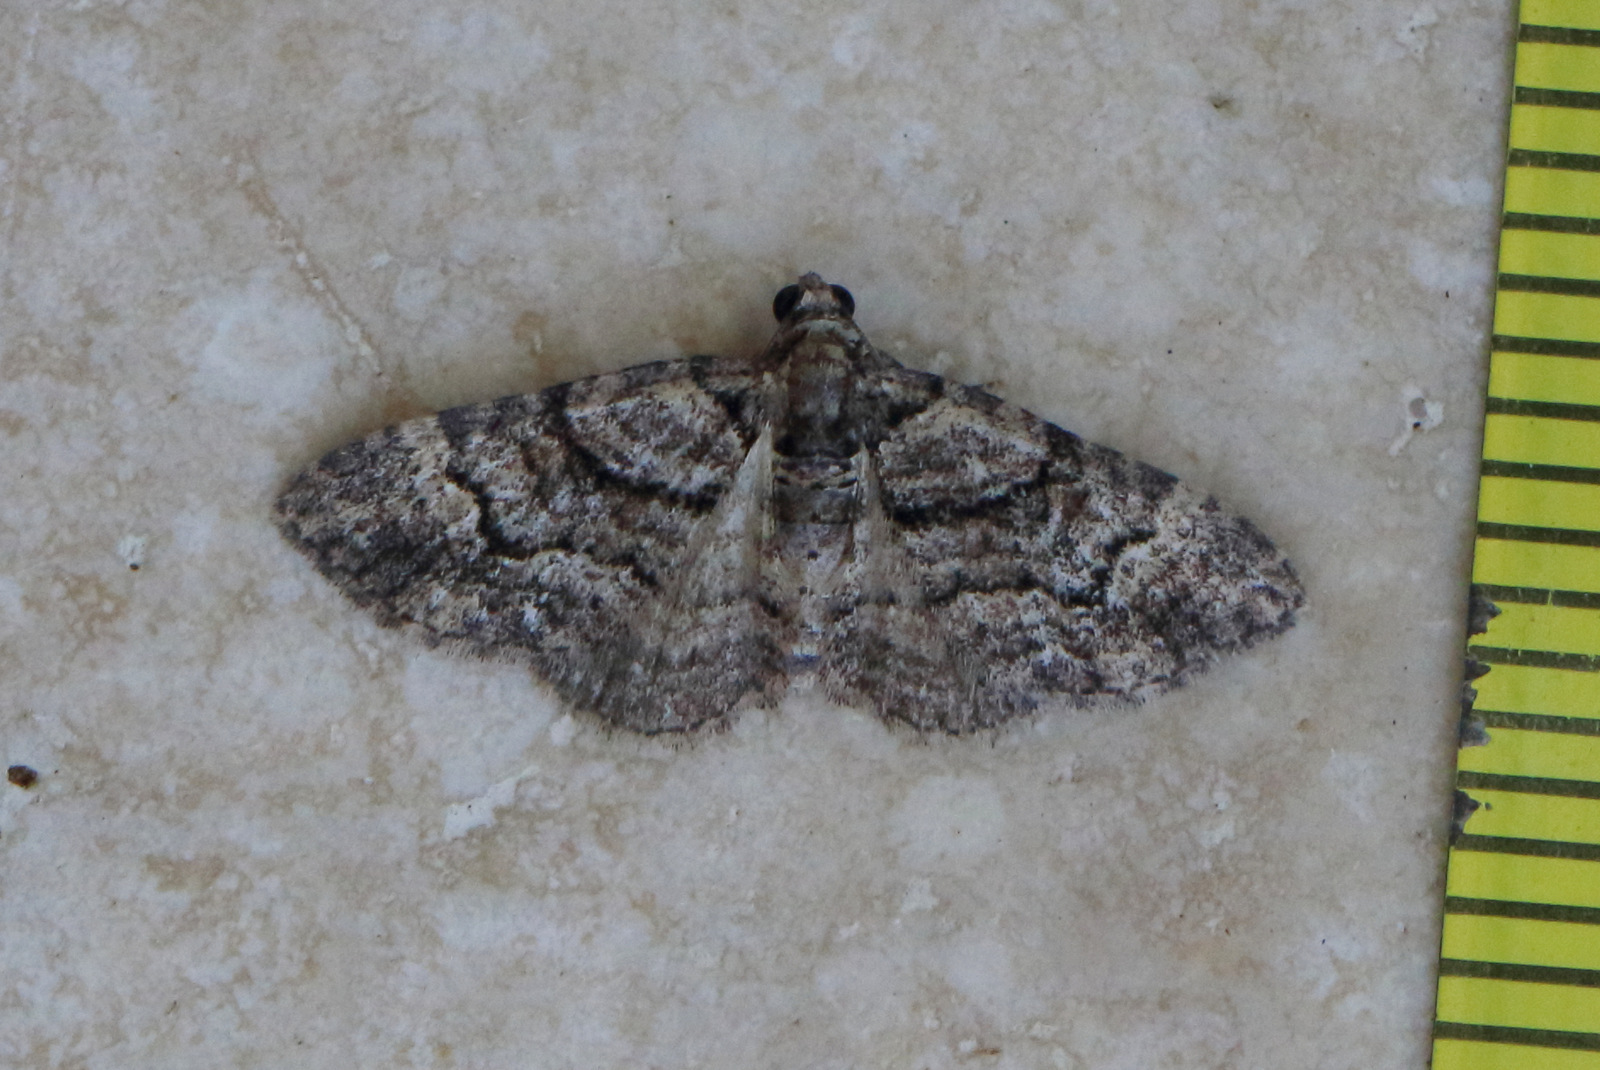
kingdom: Animalia
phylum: Arthropoda
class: Insecta
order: Lepidoptera
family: Geometridae
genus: Epyaxa
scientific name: Epyaxa sodaliata
